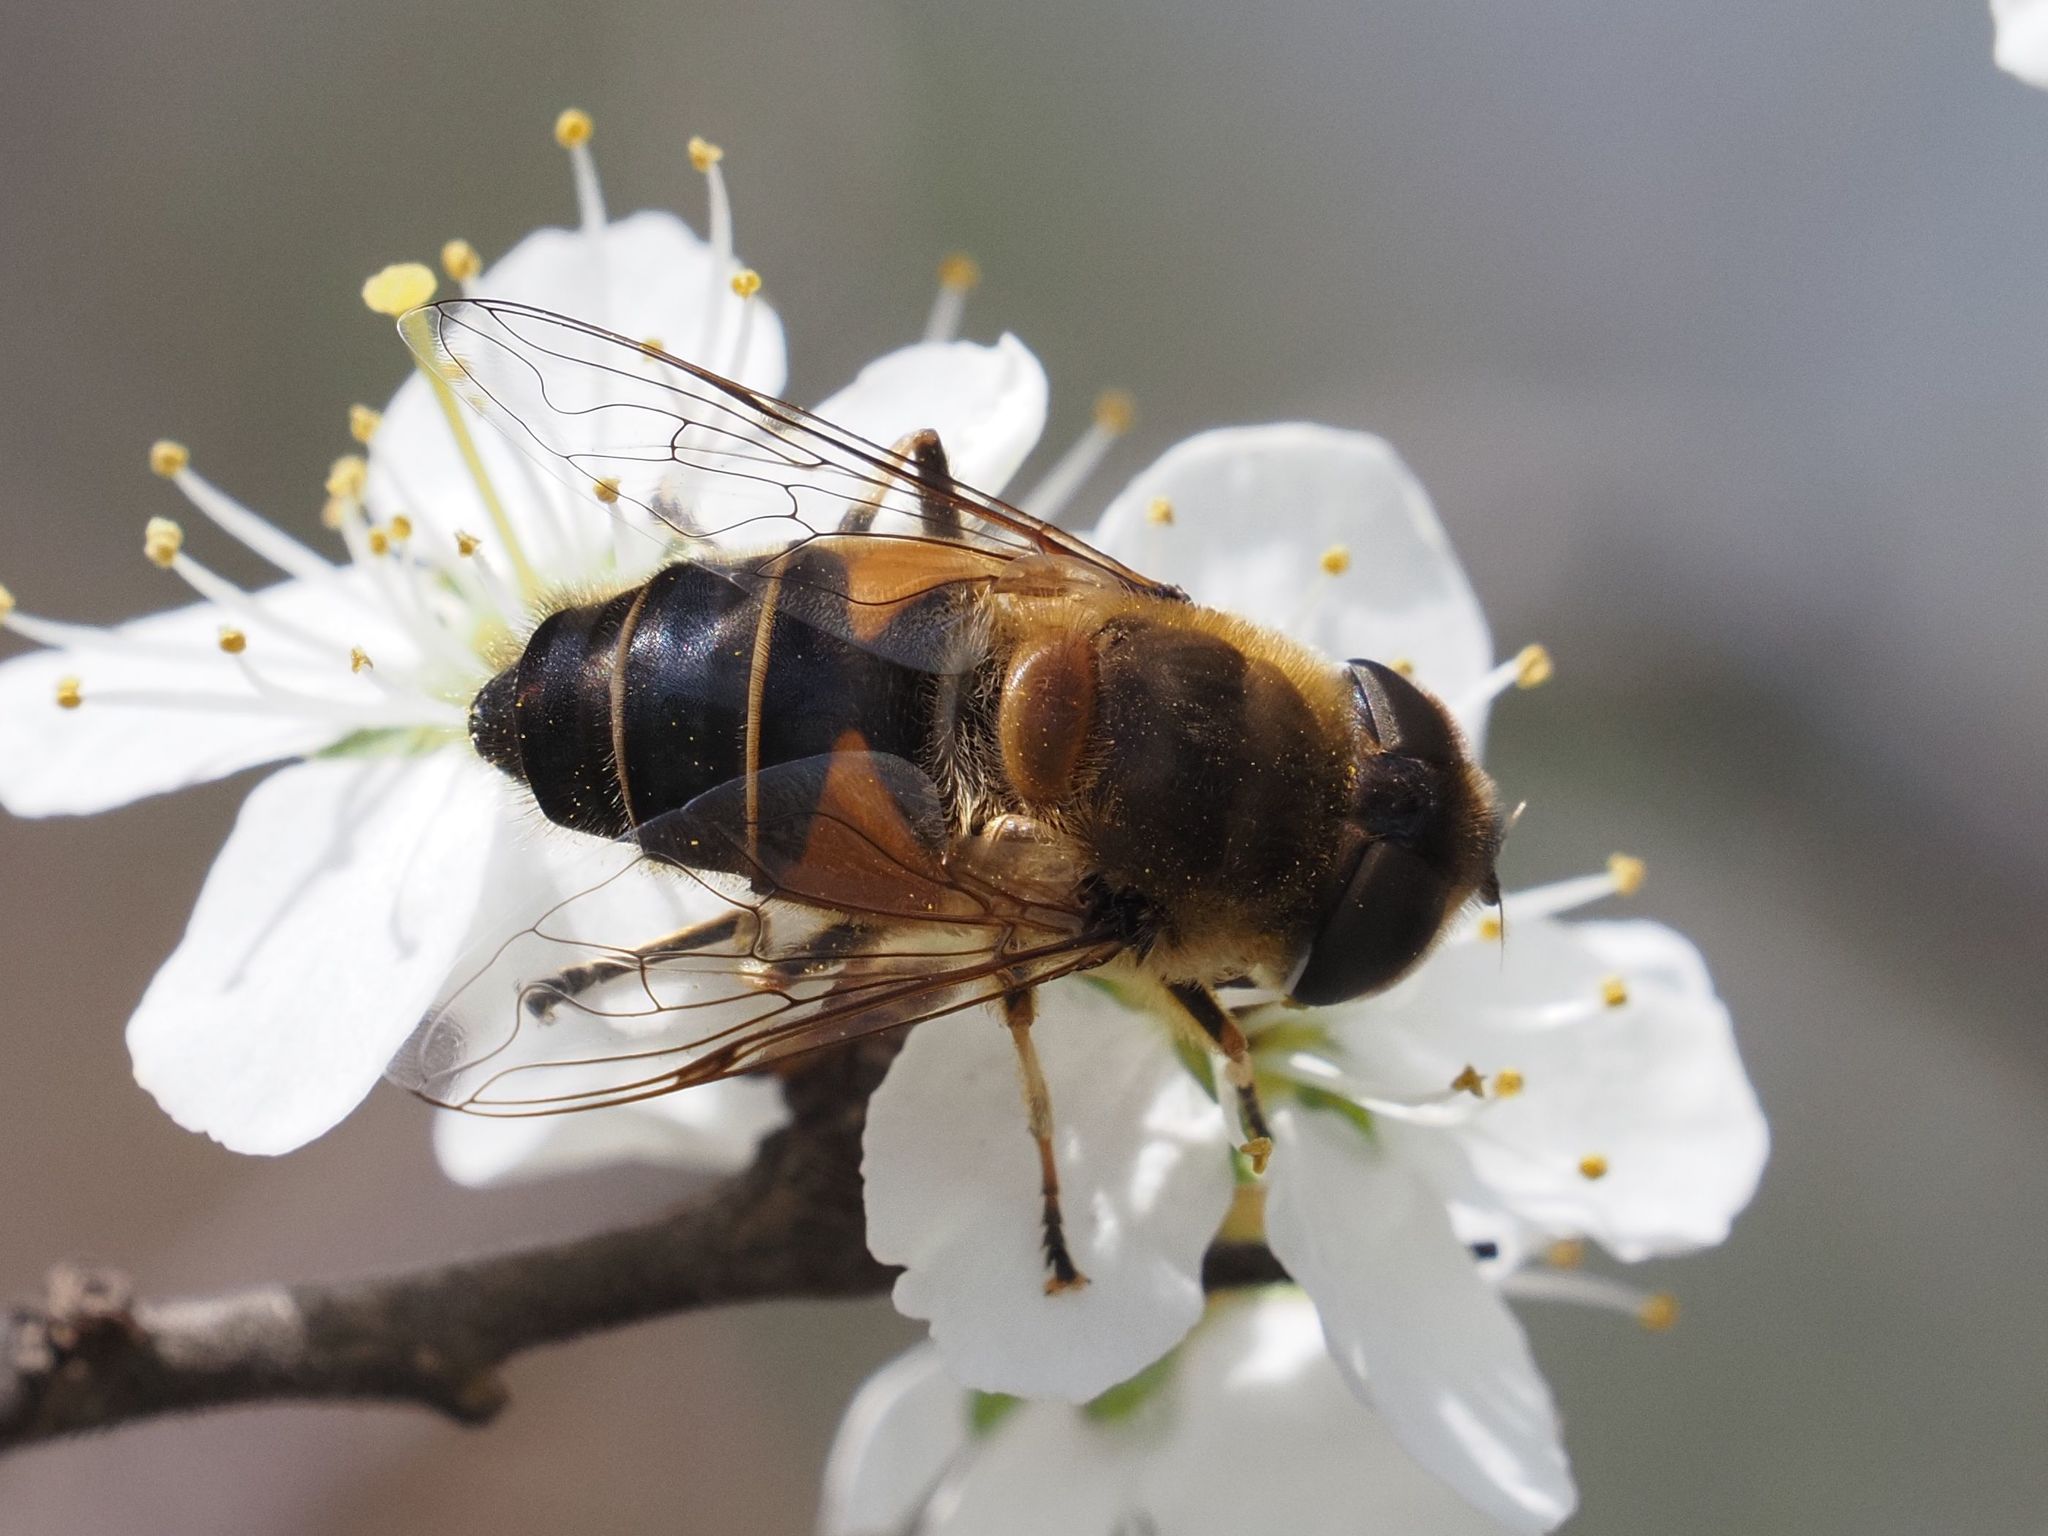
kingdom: Animalia
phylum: Arthropoda
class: Insecta
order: Diptera
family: Syrphidae
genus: Eristalis
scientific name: Eristalis pertinax
